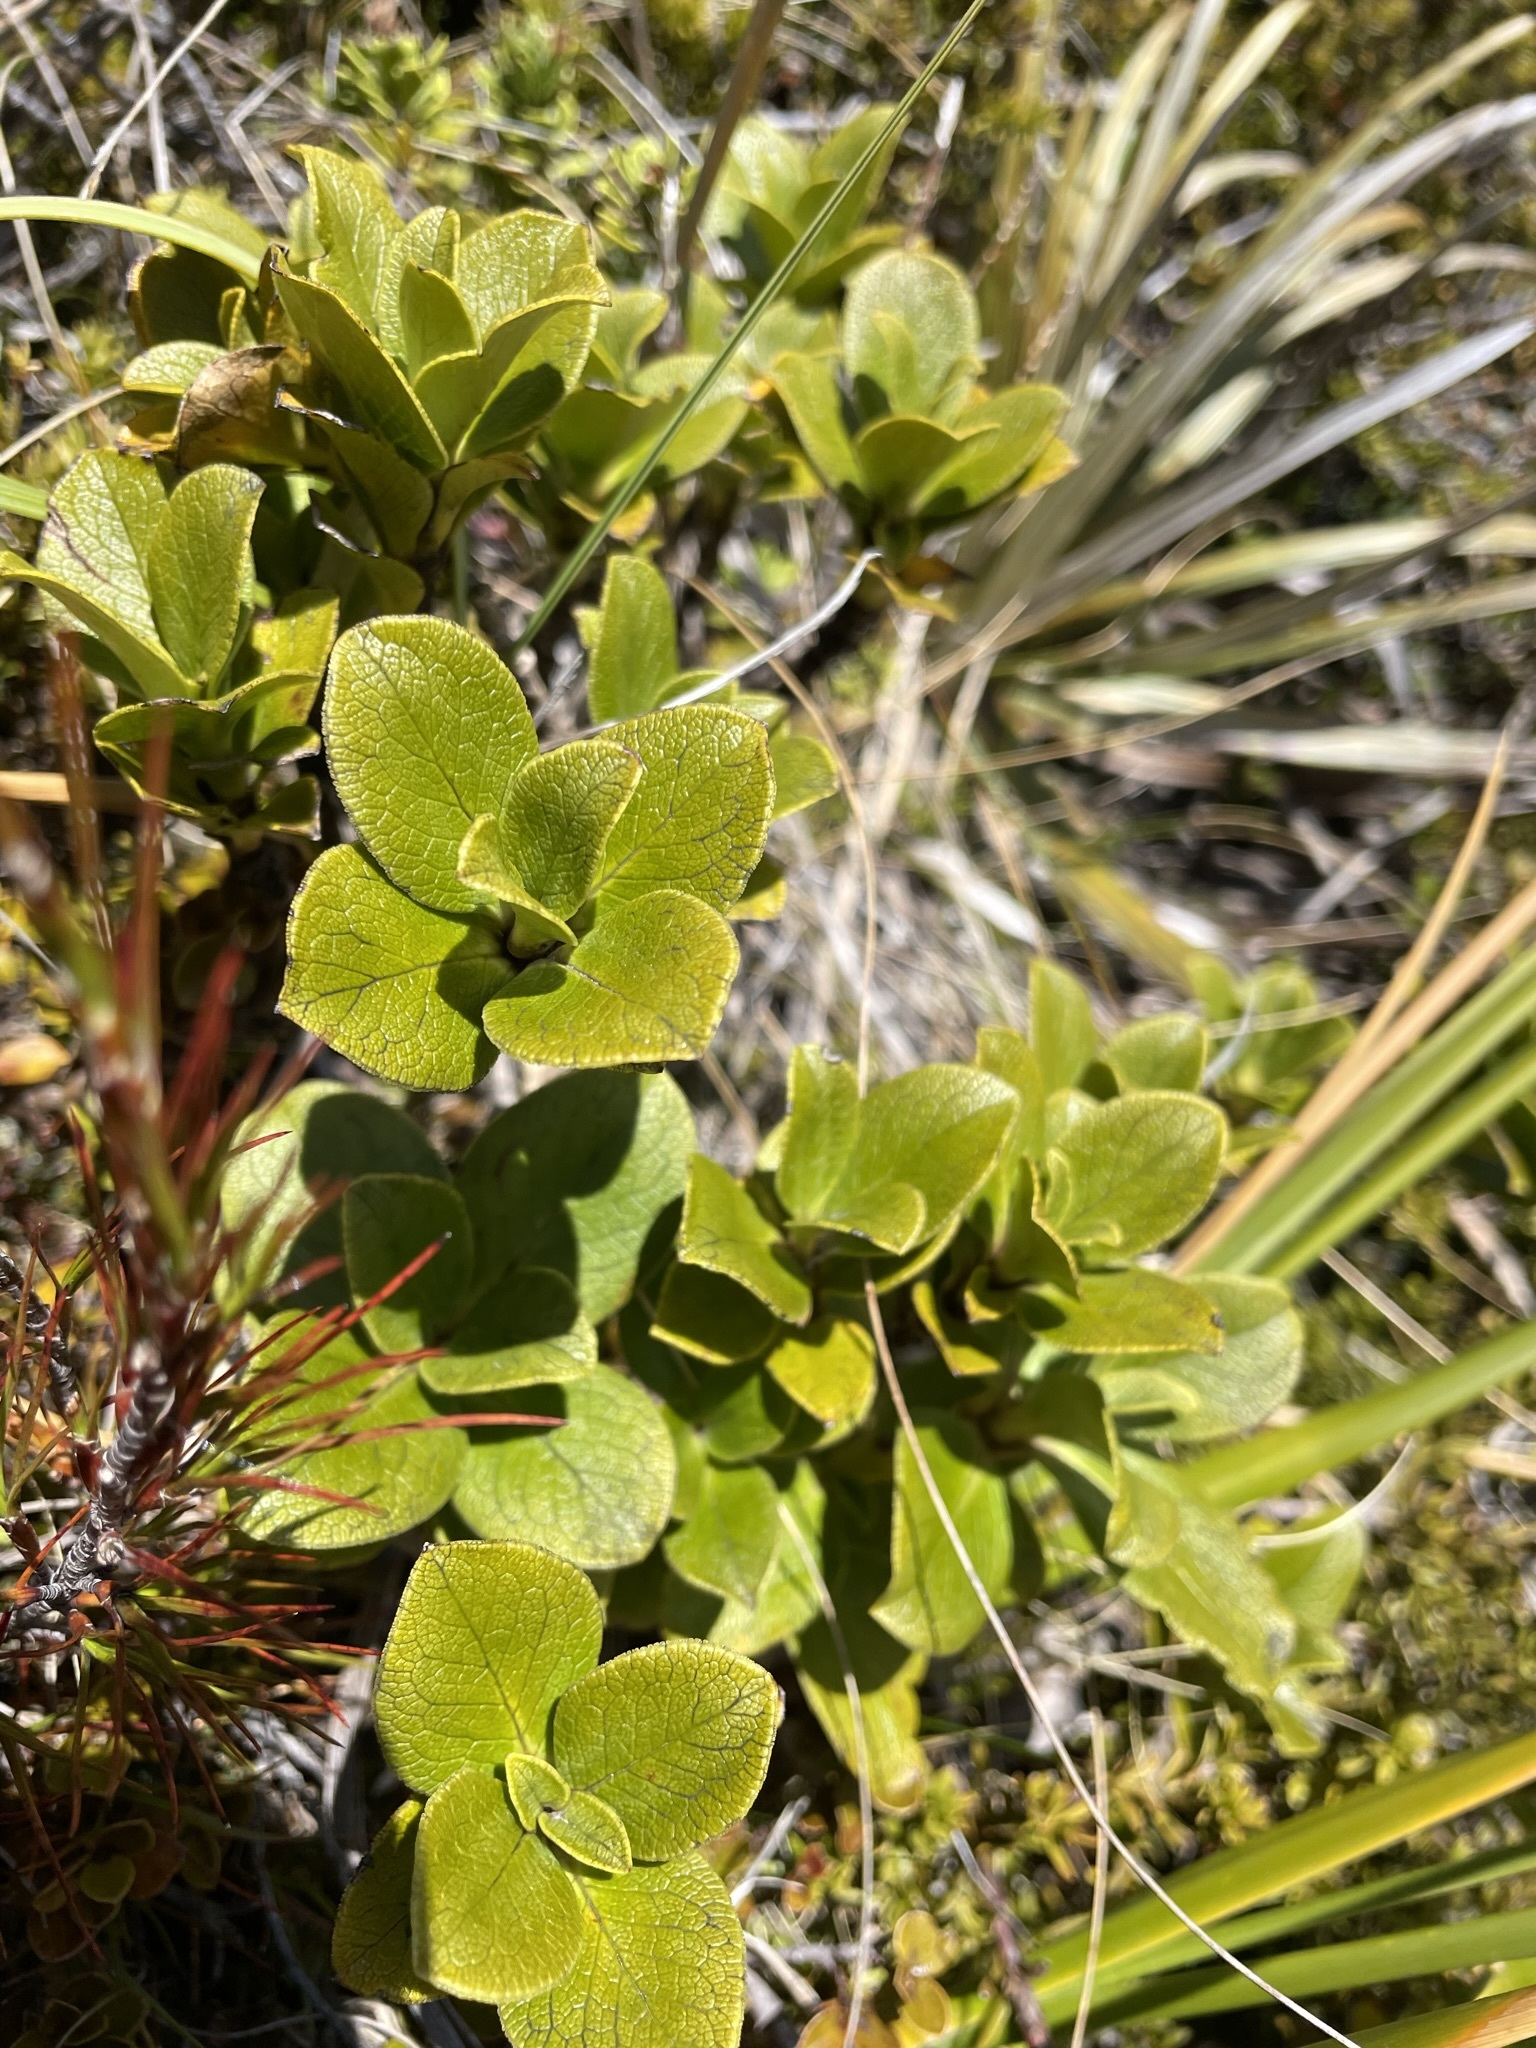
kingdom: Plantae
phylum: Tracheophyta
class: Magnoliopsida
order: Gentianales
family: Rubiaceae
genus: Coprosma
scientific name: Coprosma serrulata
